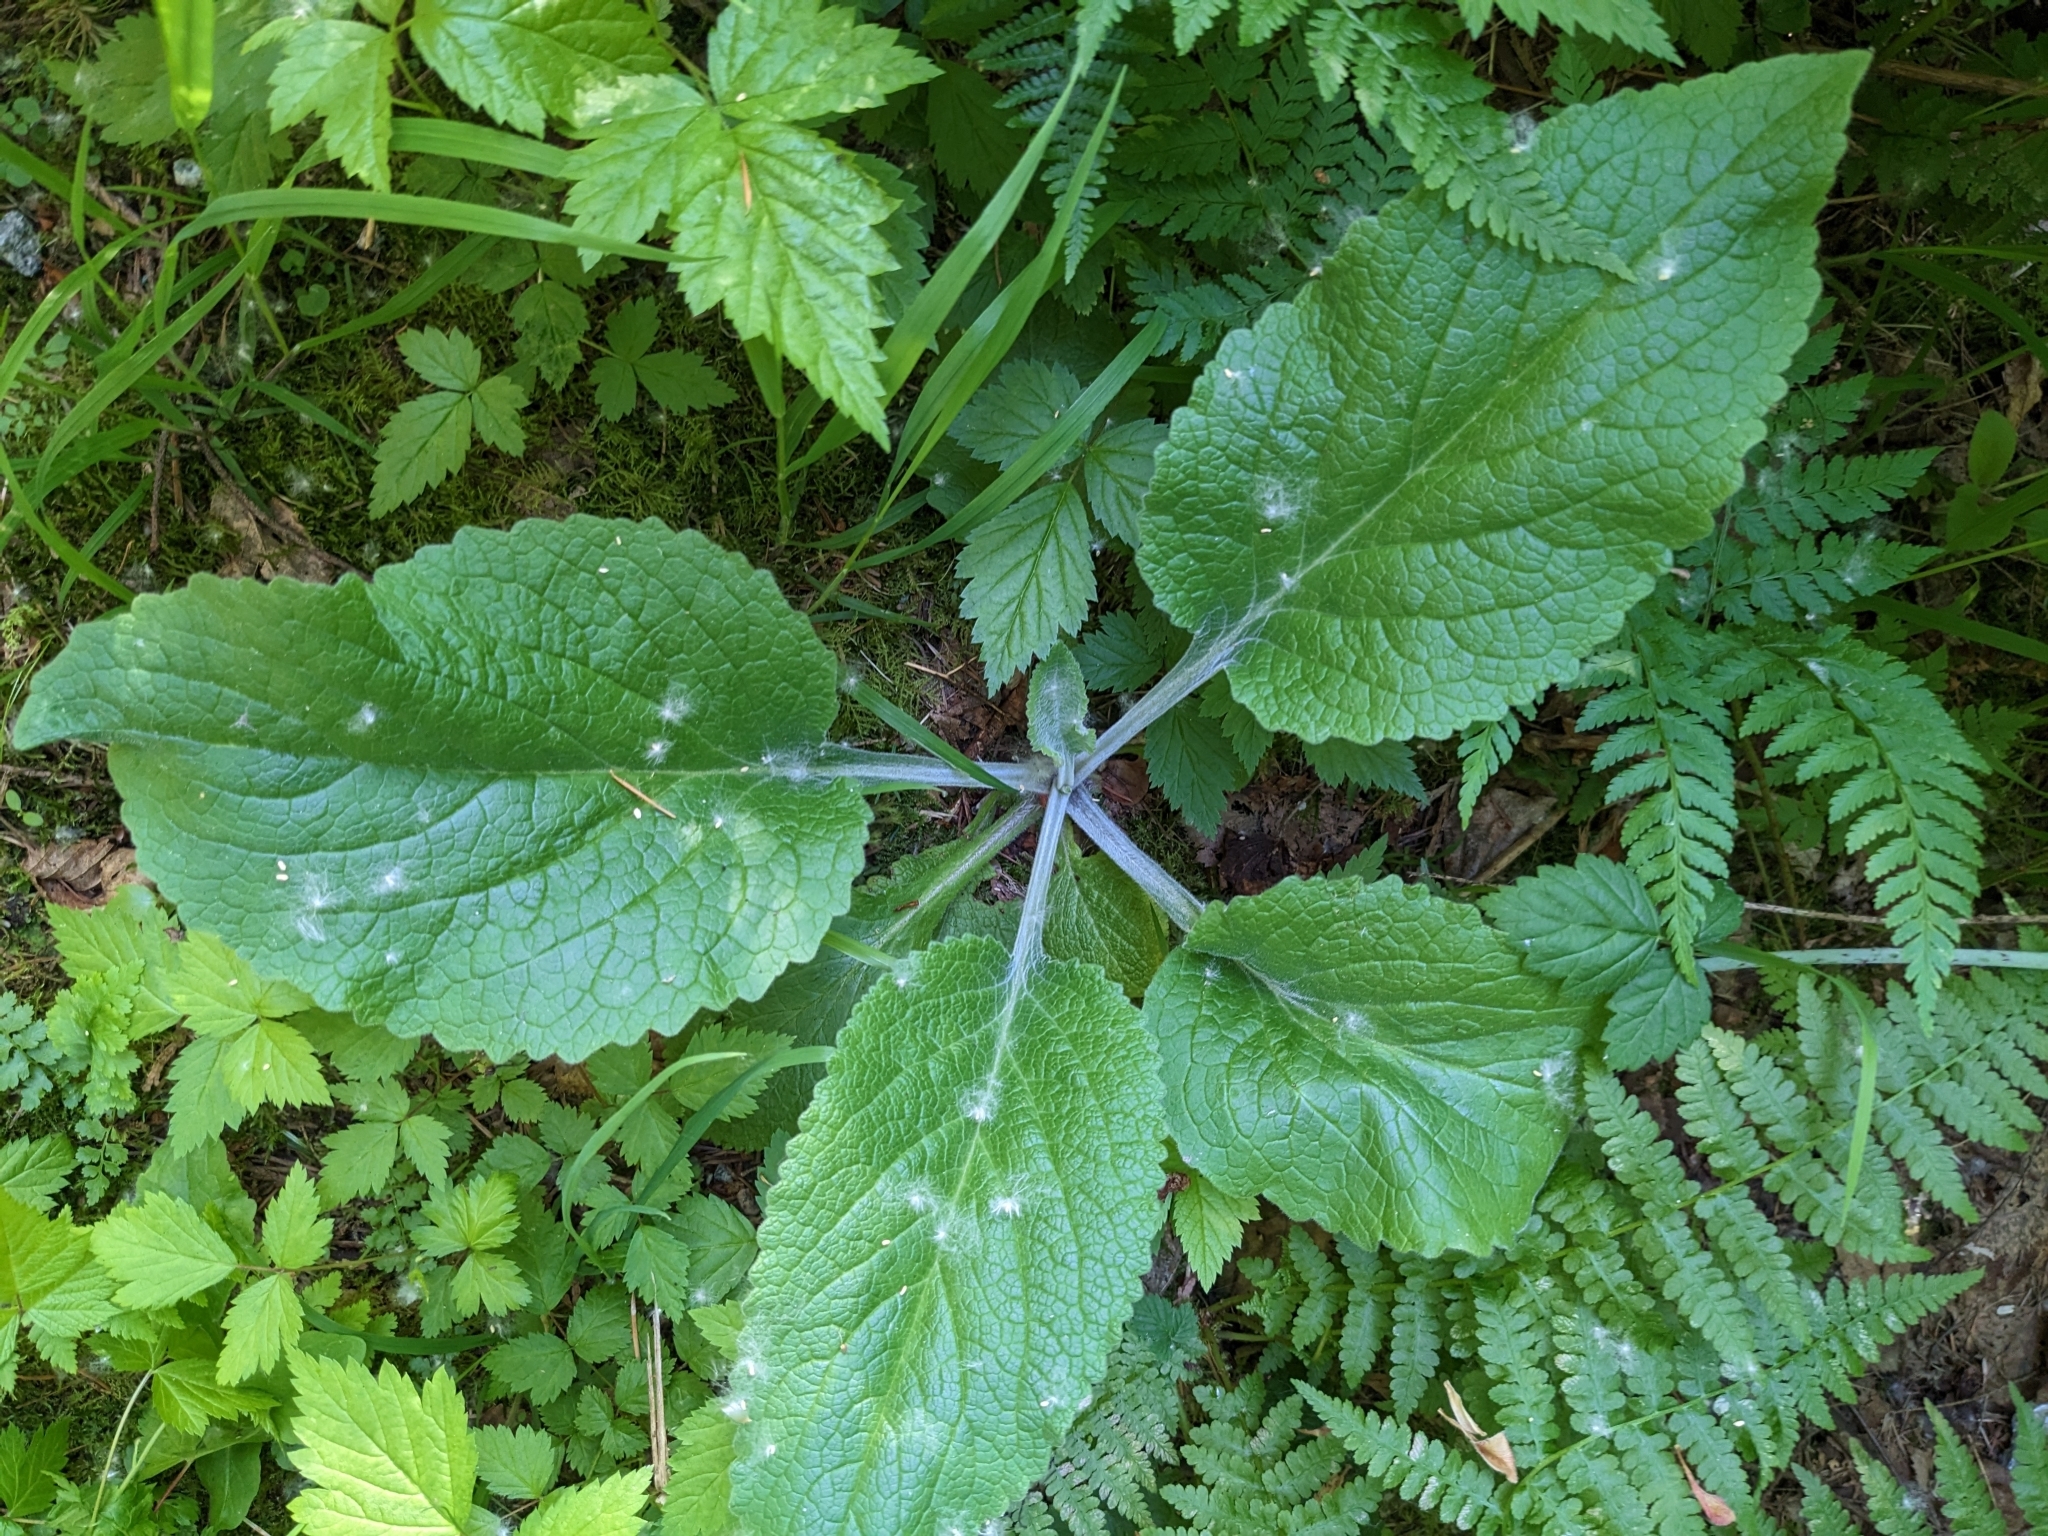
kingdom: Plantae
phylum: Tracheophyta
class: Magnoliopsida
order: Lamiales
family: Plantaginaceae
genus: Digitalis
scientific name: Digitalis purpurea
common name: Foxglove
